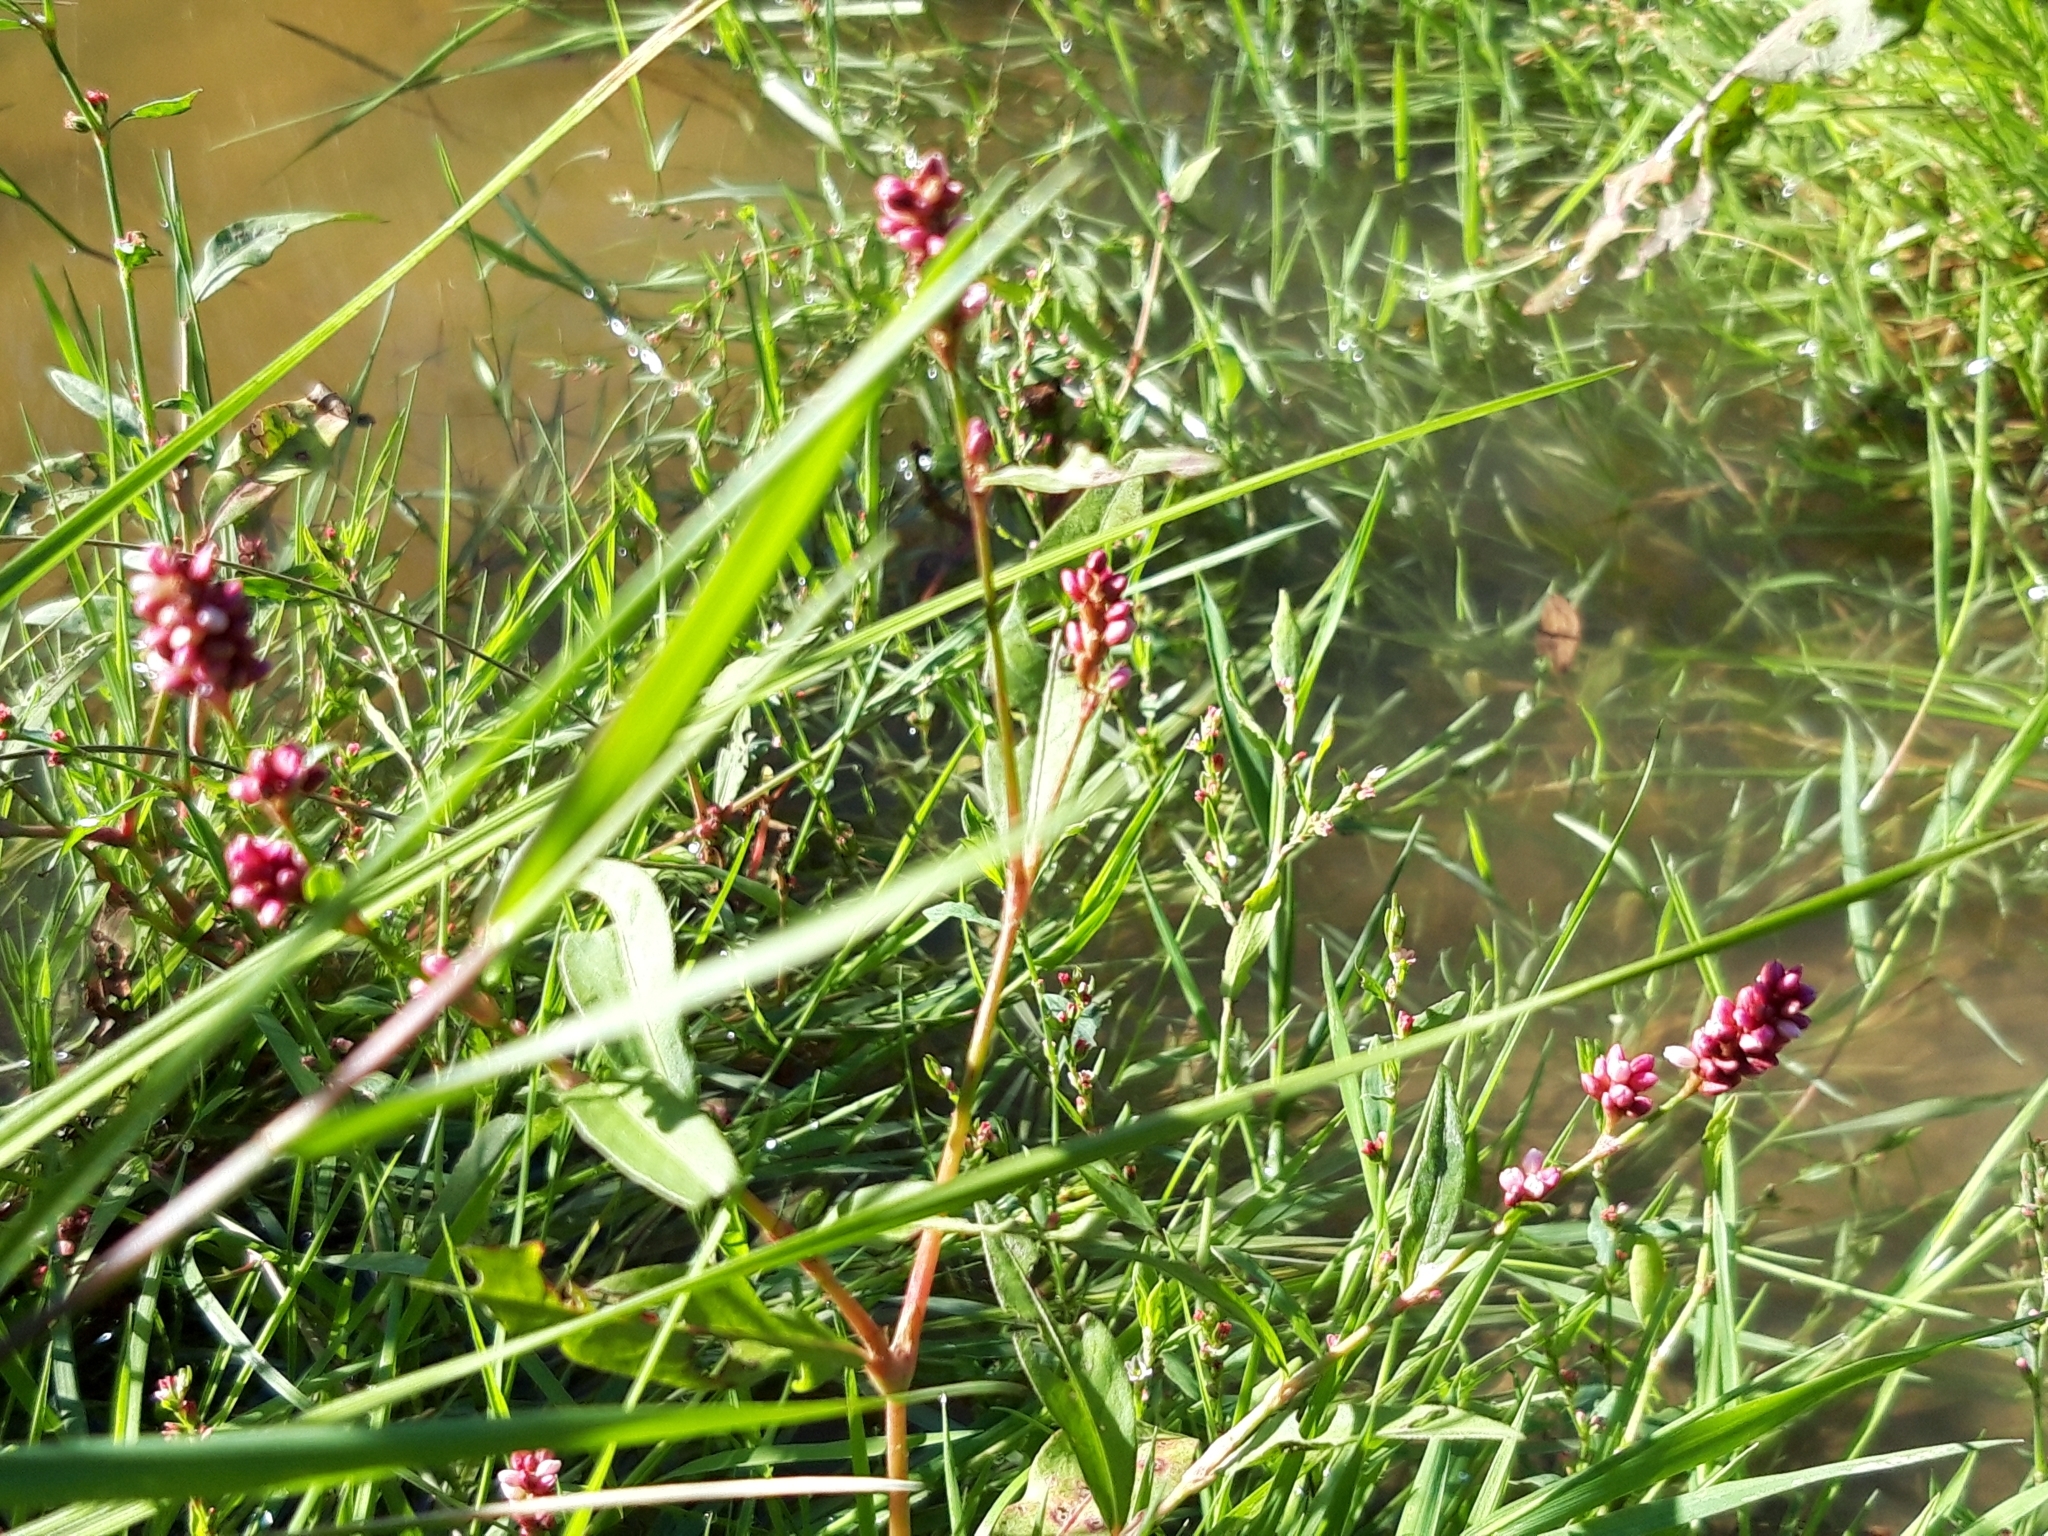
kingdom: Plantae
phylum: Tracheophyta
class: Magnoliopsida
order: Caryophyllales
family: Polygonaceae
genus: Persicaria
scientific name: Persicaria maculosa
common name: Redshank
